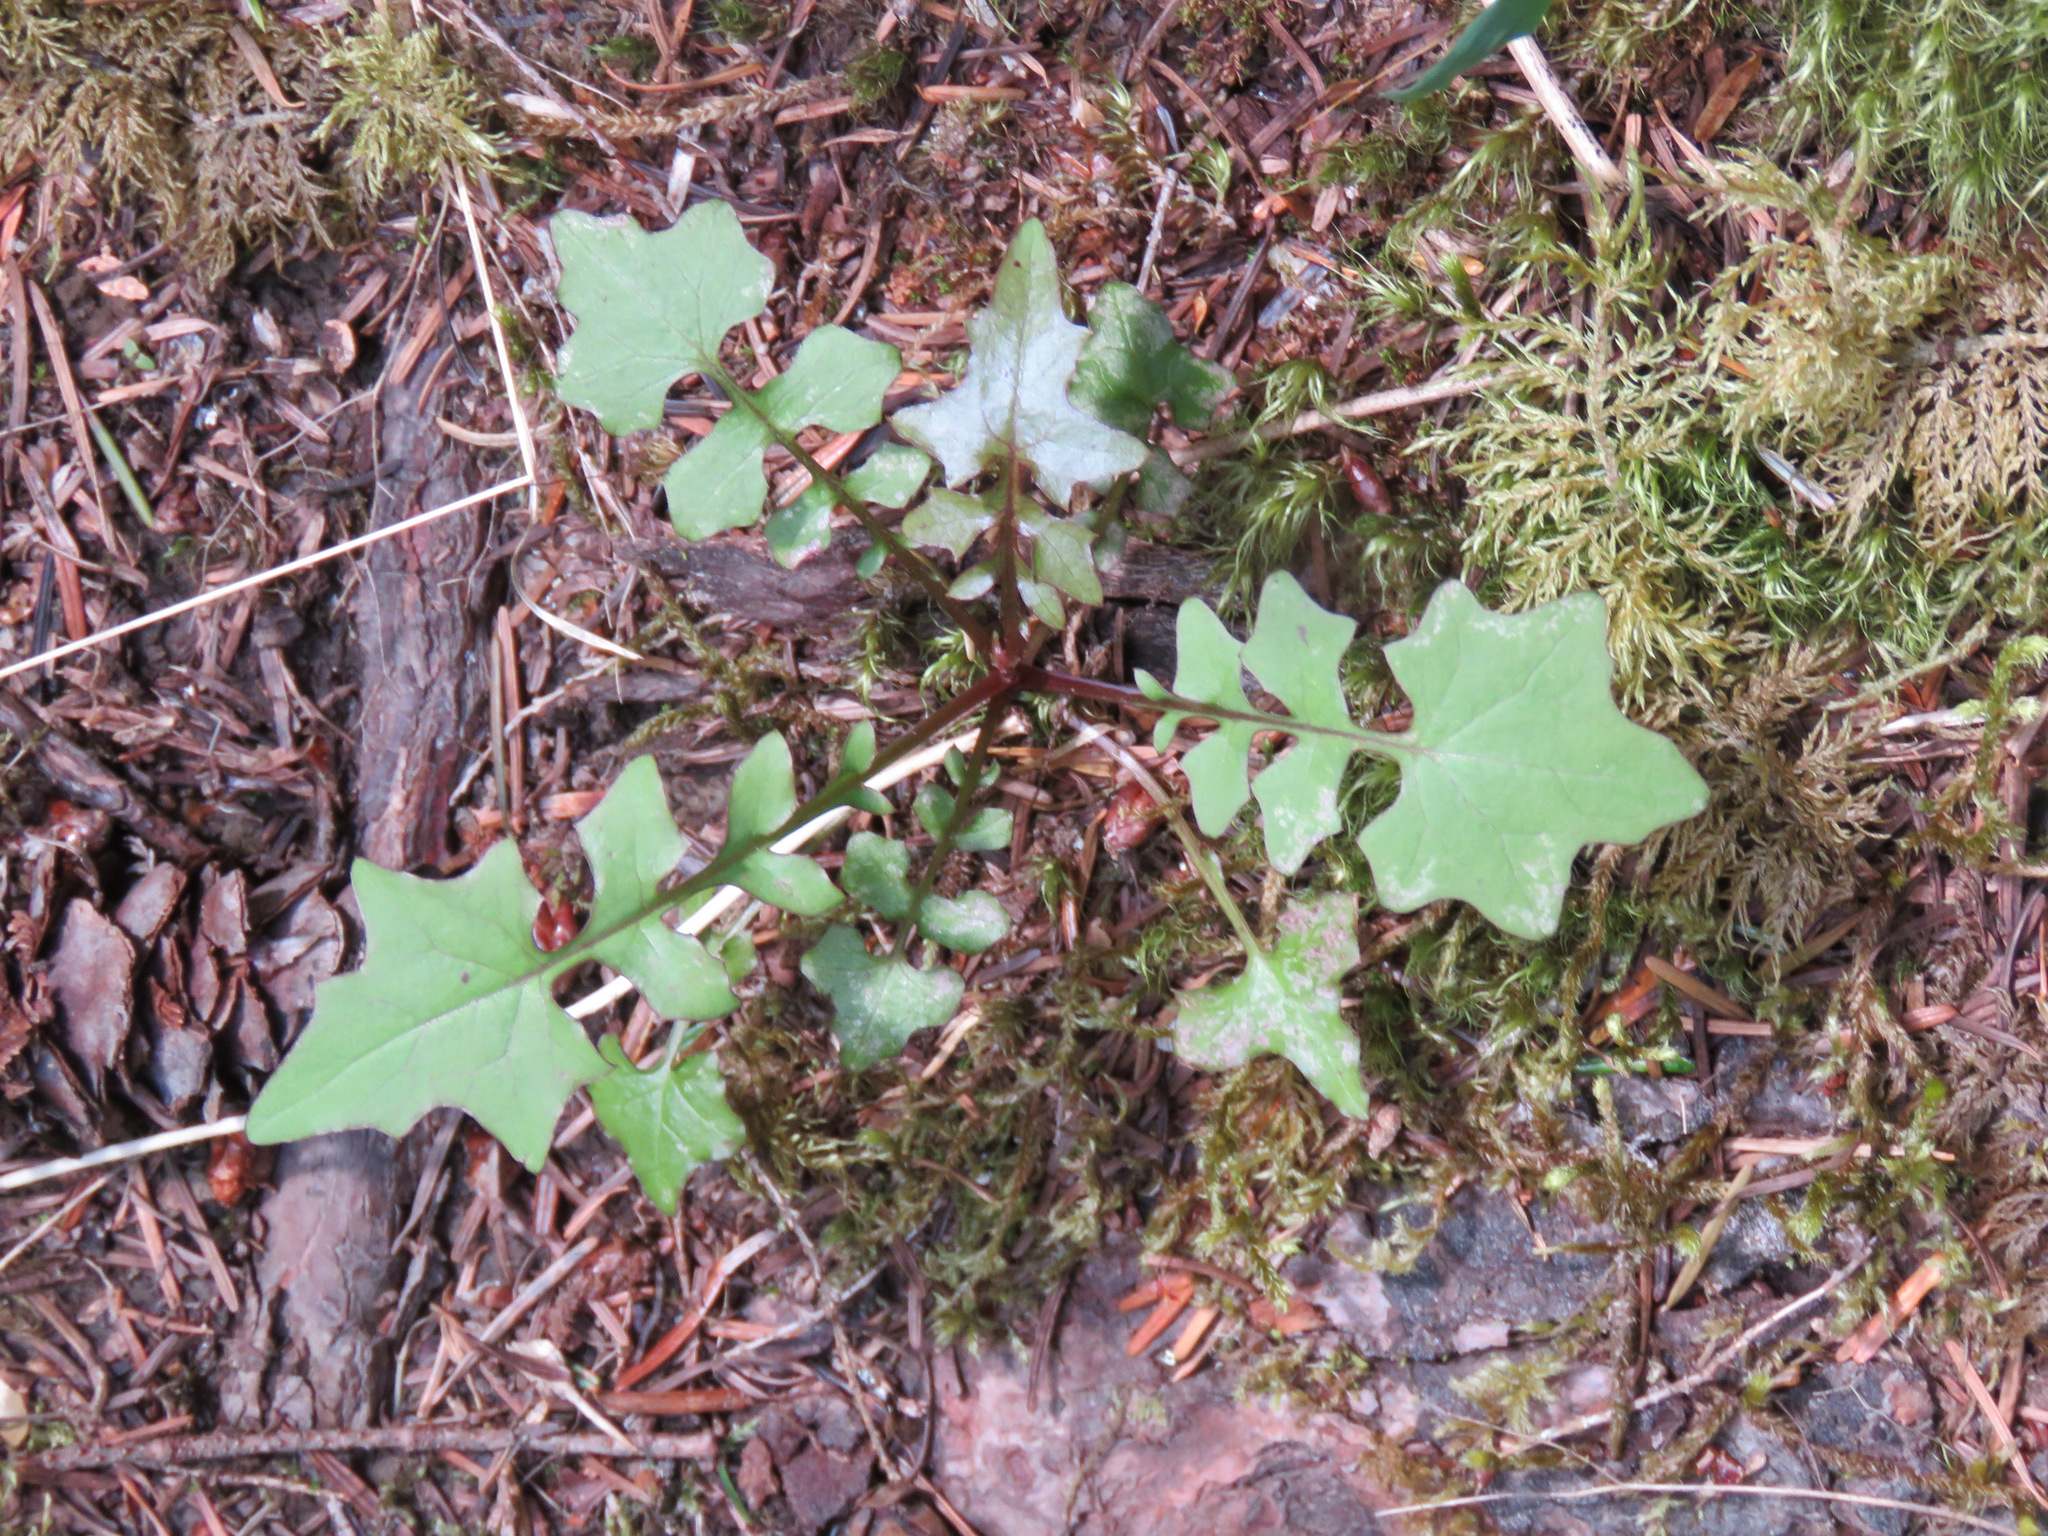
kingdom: Plantae
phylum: Tracheophyta
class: Magnoliopsida
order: Asterales
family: Asteraceae
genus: Mycelis
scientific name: Mycelis muralis
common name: Wall lettuce
